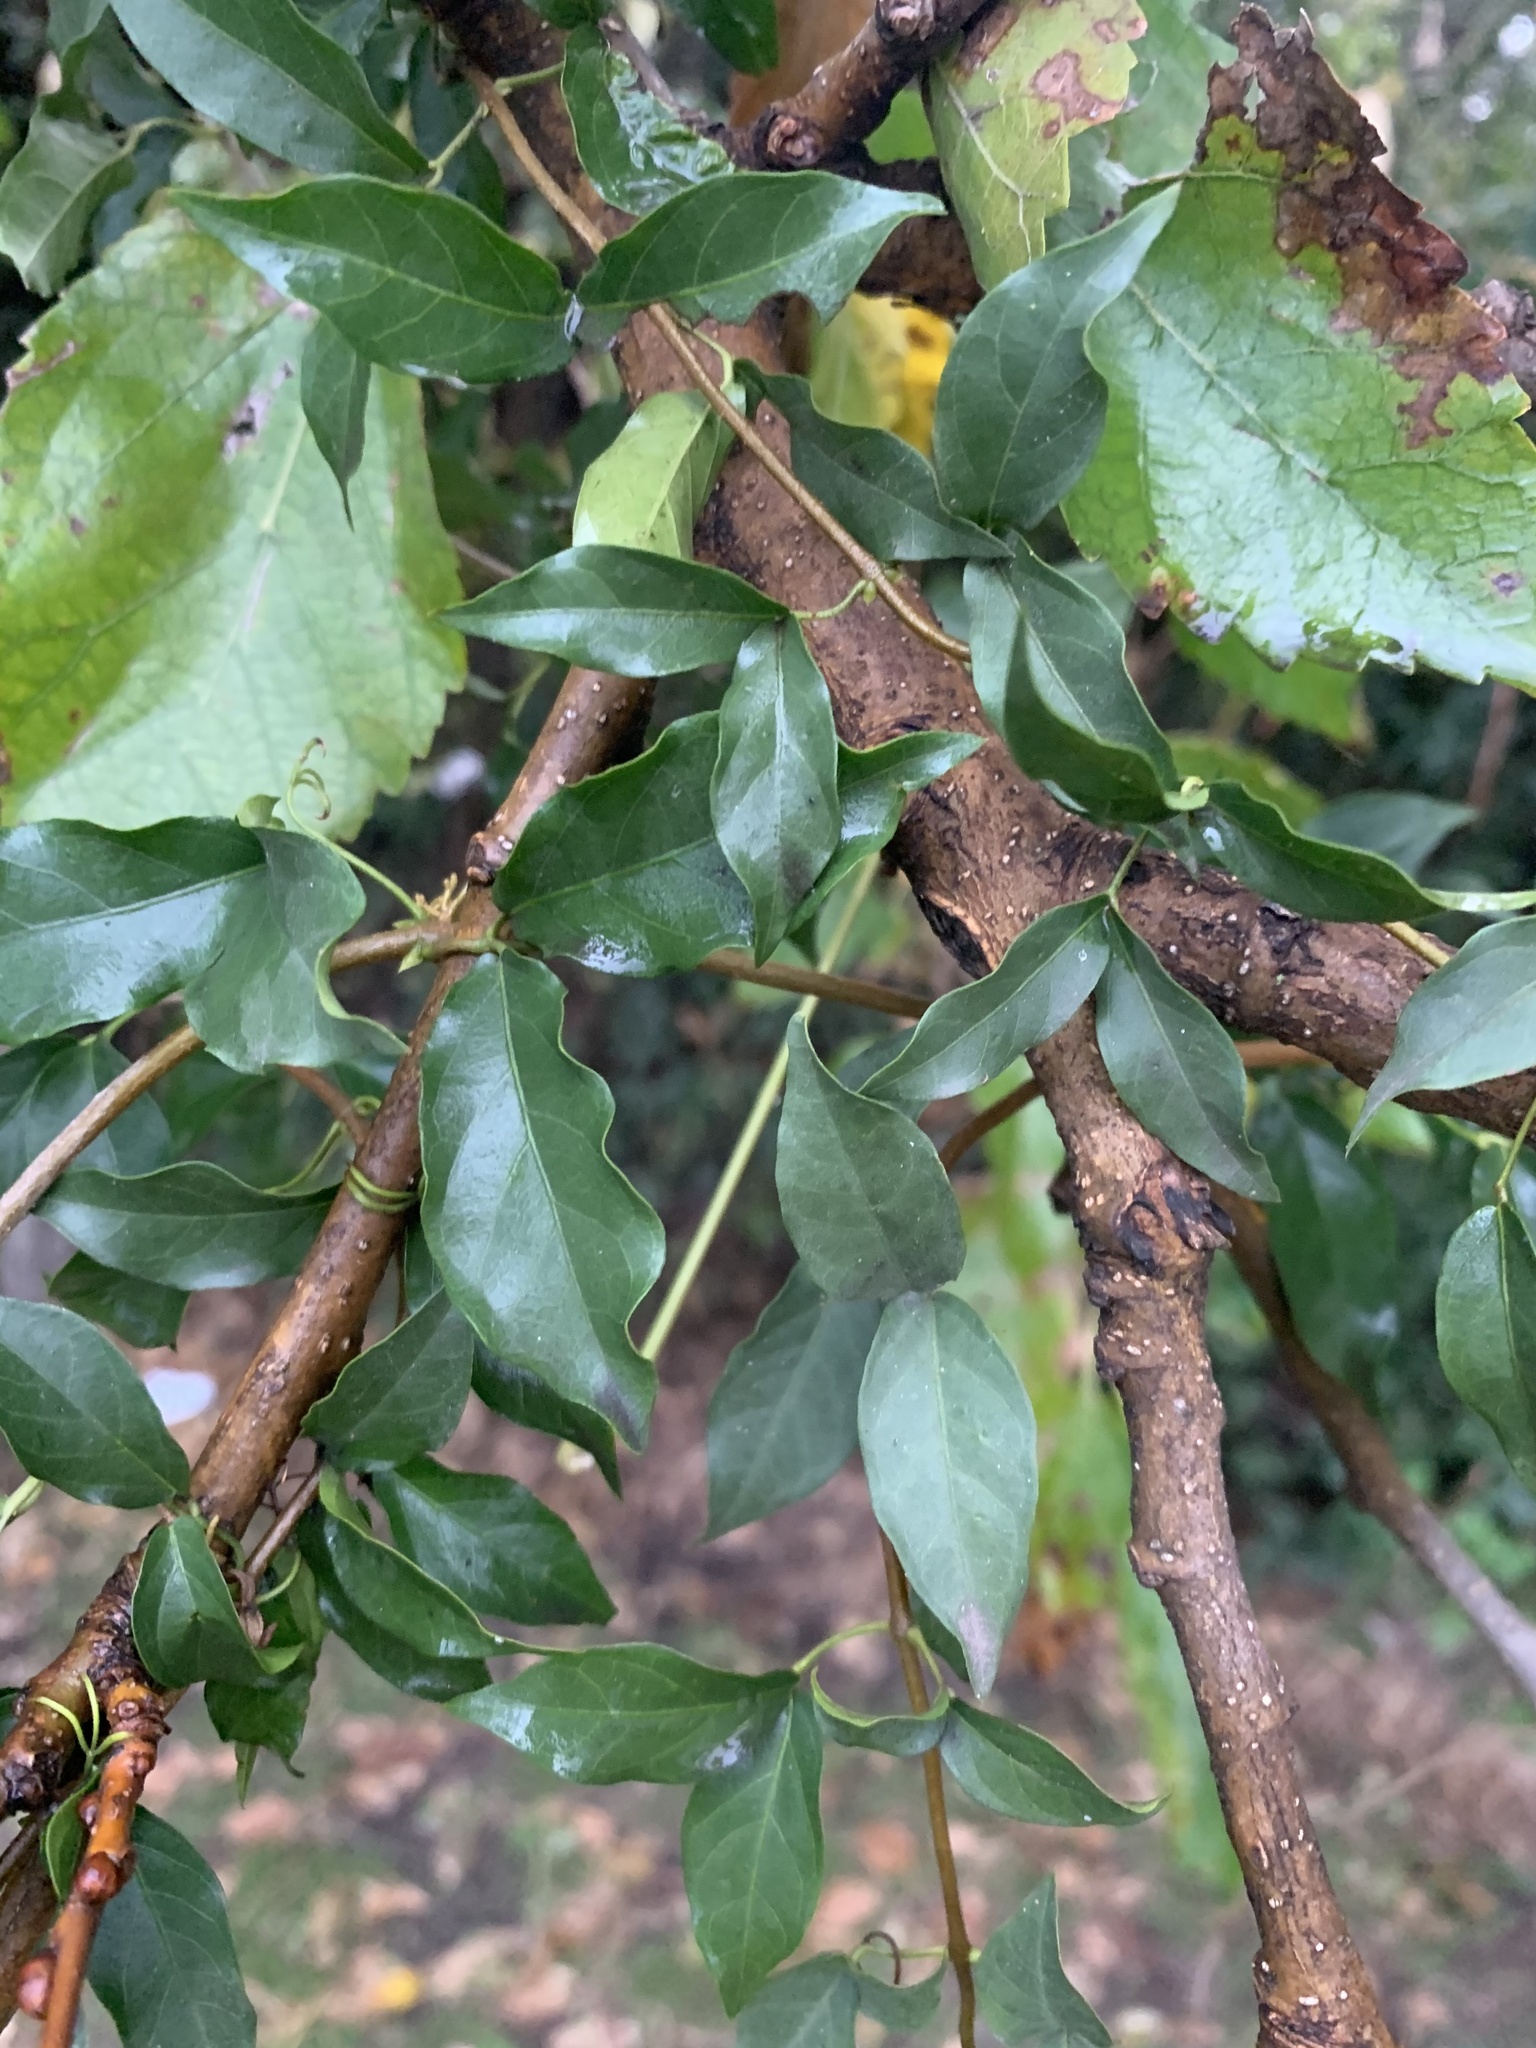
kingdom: Plantae
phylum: Tracheophyta
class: Magnoliopsida
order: Lamiales
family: Bignoniaceae
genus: Dolichandra
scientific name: Dolichandra unguis-cati
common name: Catclaw vine
